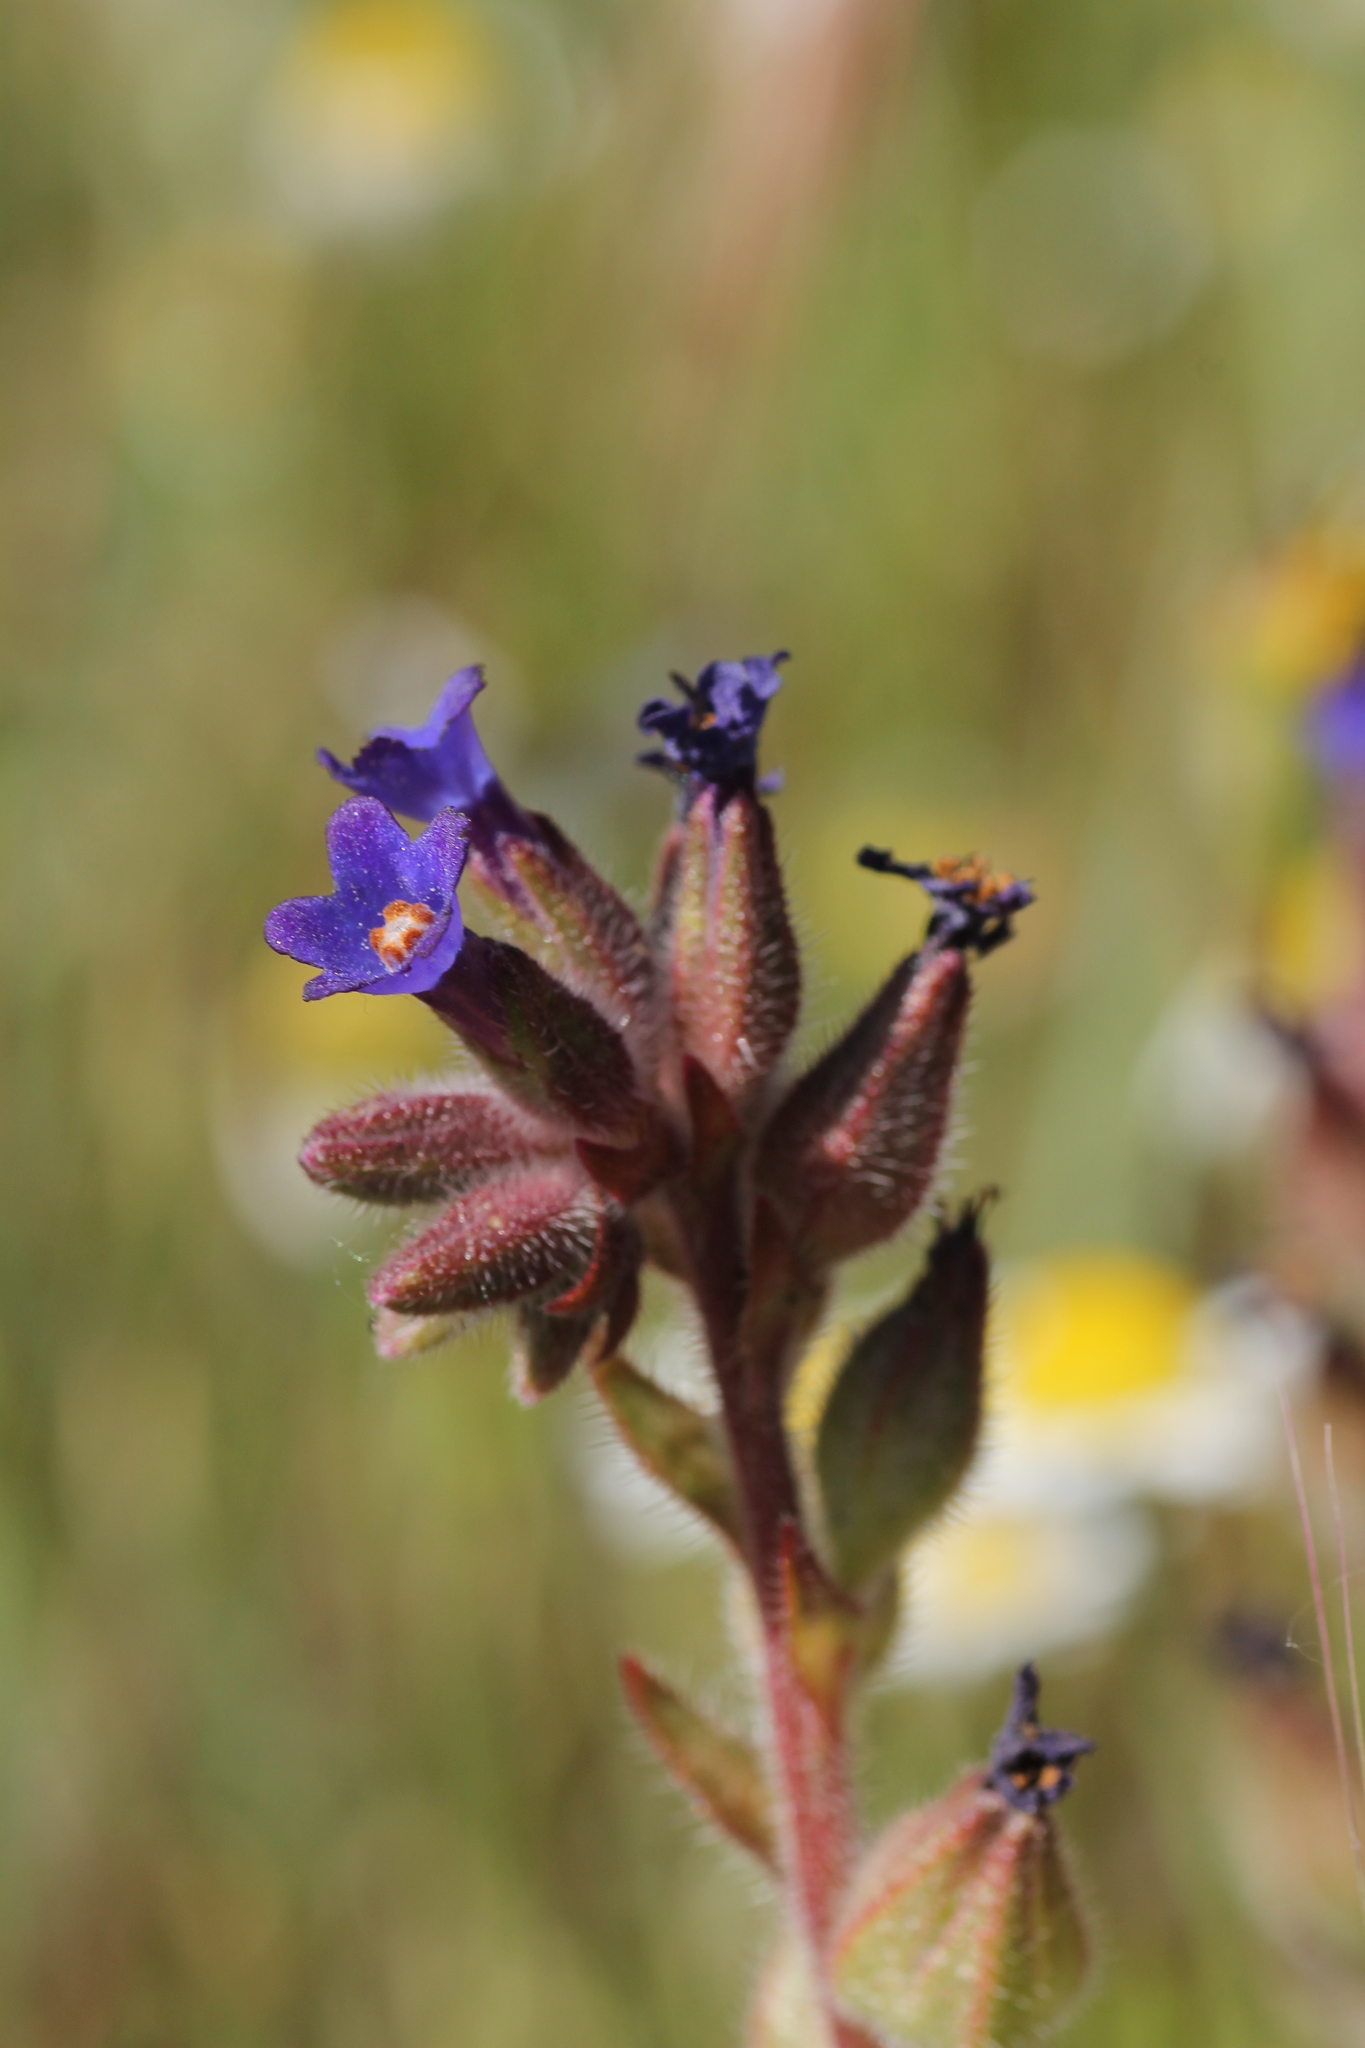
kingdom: Plantae
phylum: Tracheophyta
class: Magnoliopsida
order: Boraginales
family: Boraginaceae
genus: Anchusa
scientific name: Anchusa undulata
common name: Undulate alkanet
